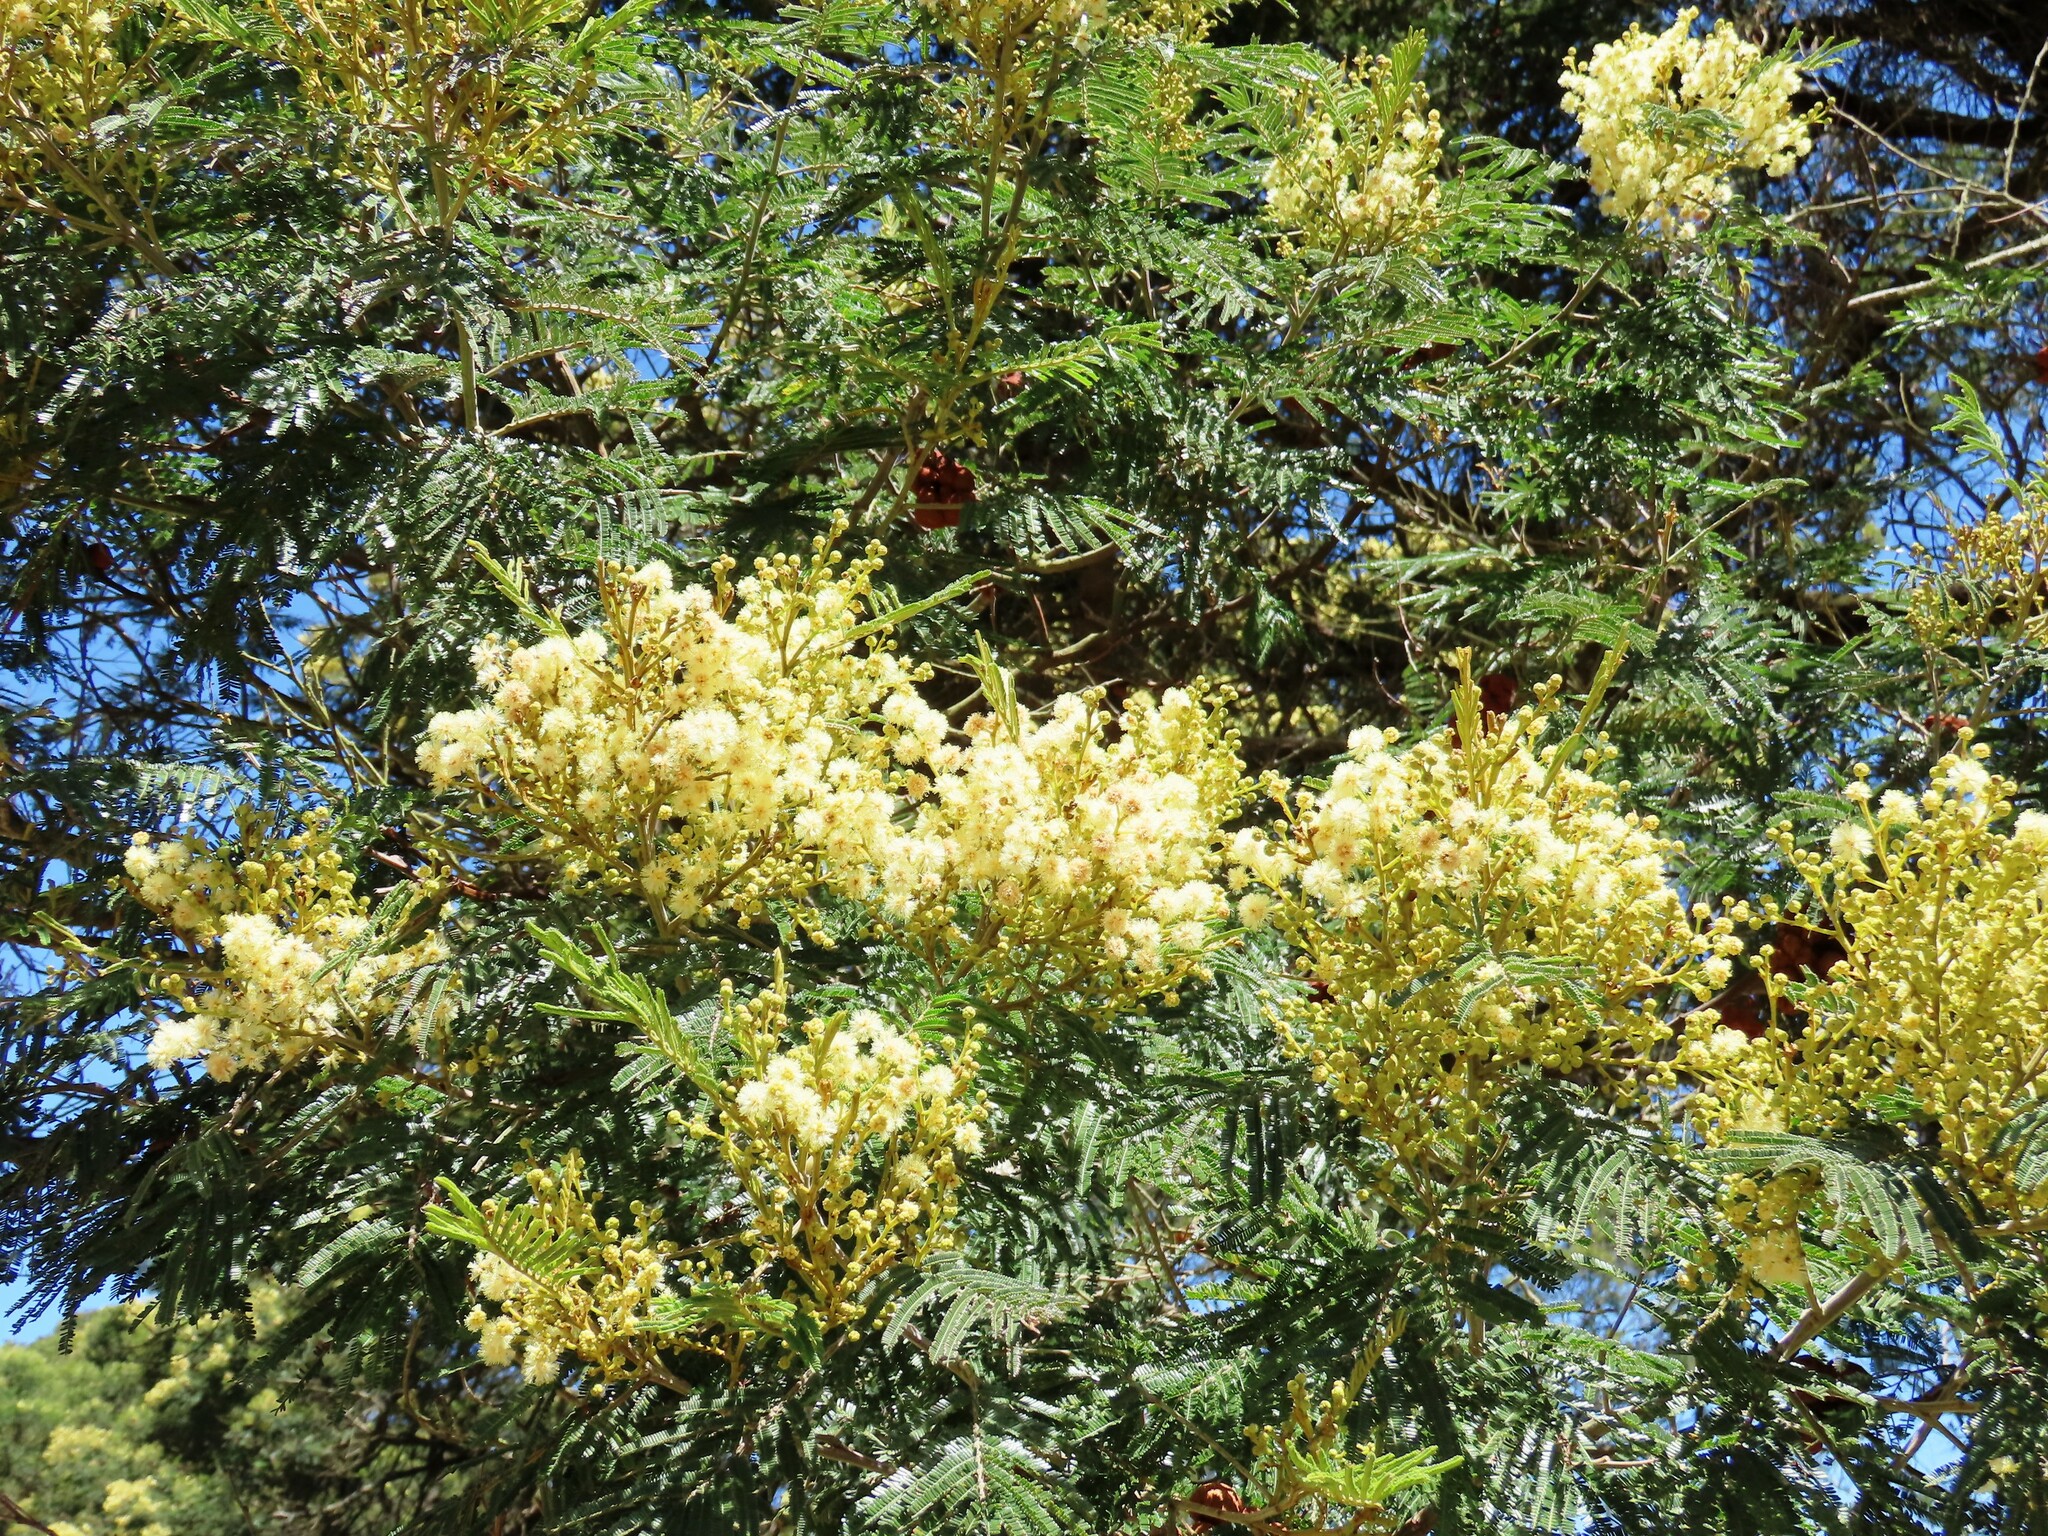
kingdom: Plantae
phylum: Tracheophyta
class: Magnoliopsida
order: Fabales
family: Fabaceae
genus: Acacia
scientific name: Acacia mearnsii
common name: Black wattle
